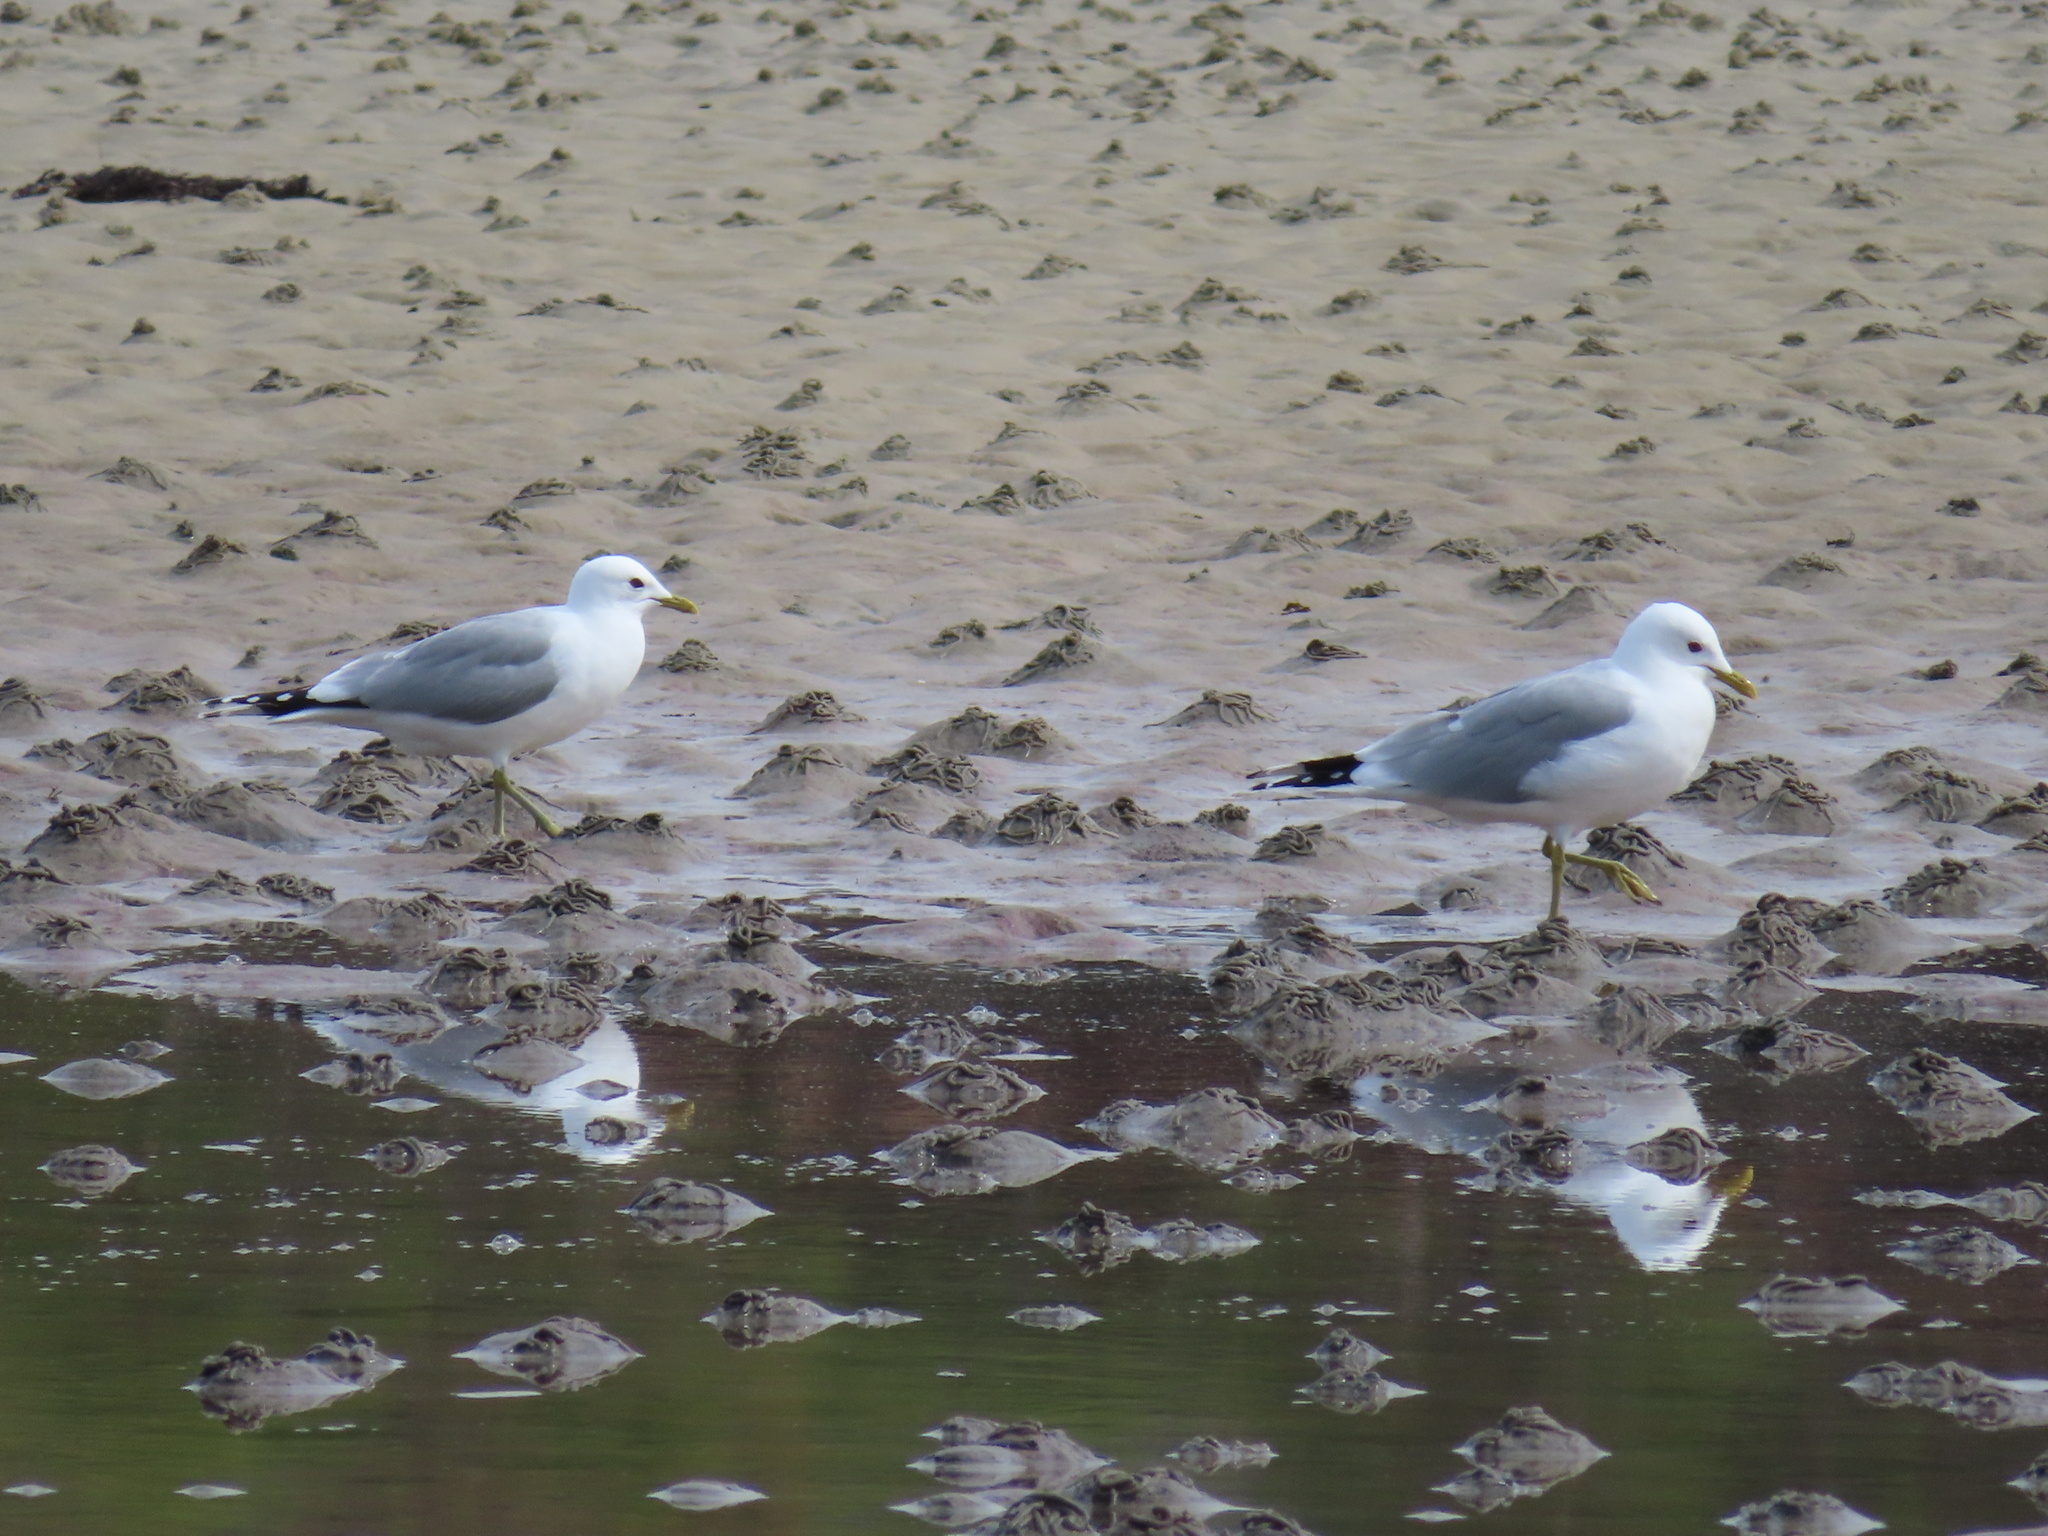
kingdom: Animalia
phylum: Chordata
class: Aves
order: Charadriiformes
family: Laridae
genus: Larus
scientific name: Larus canus
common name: Mew gull
